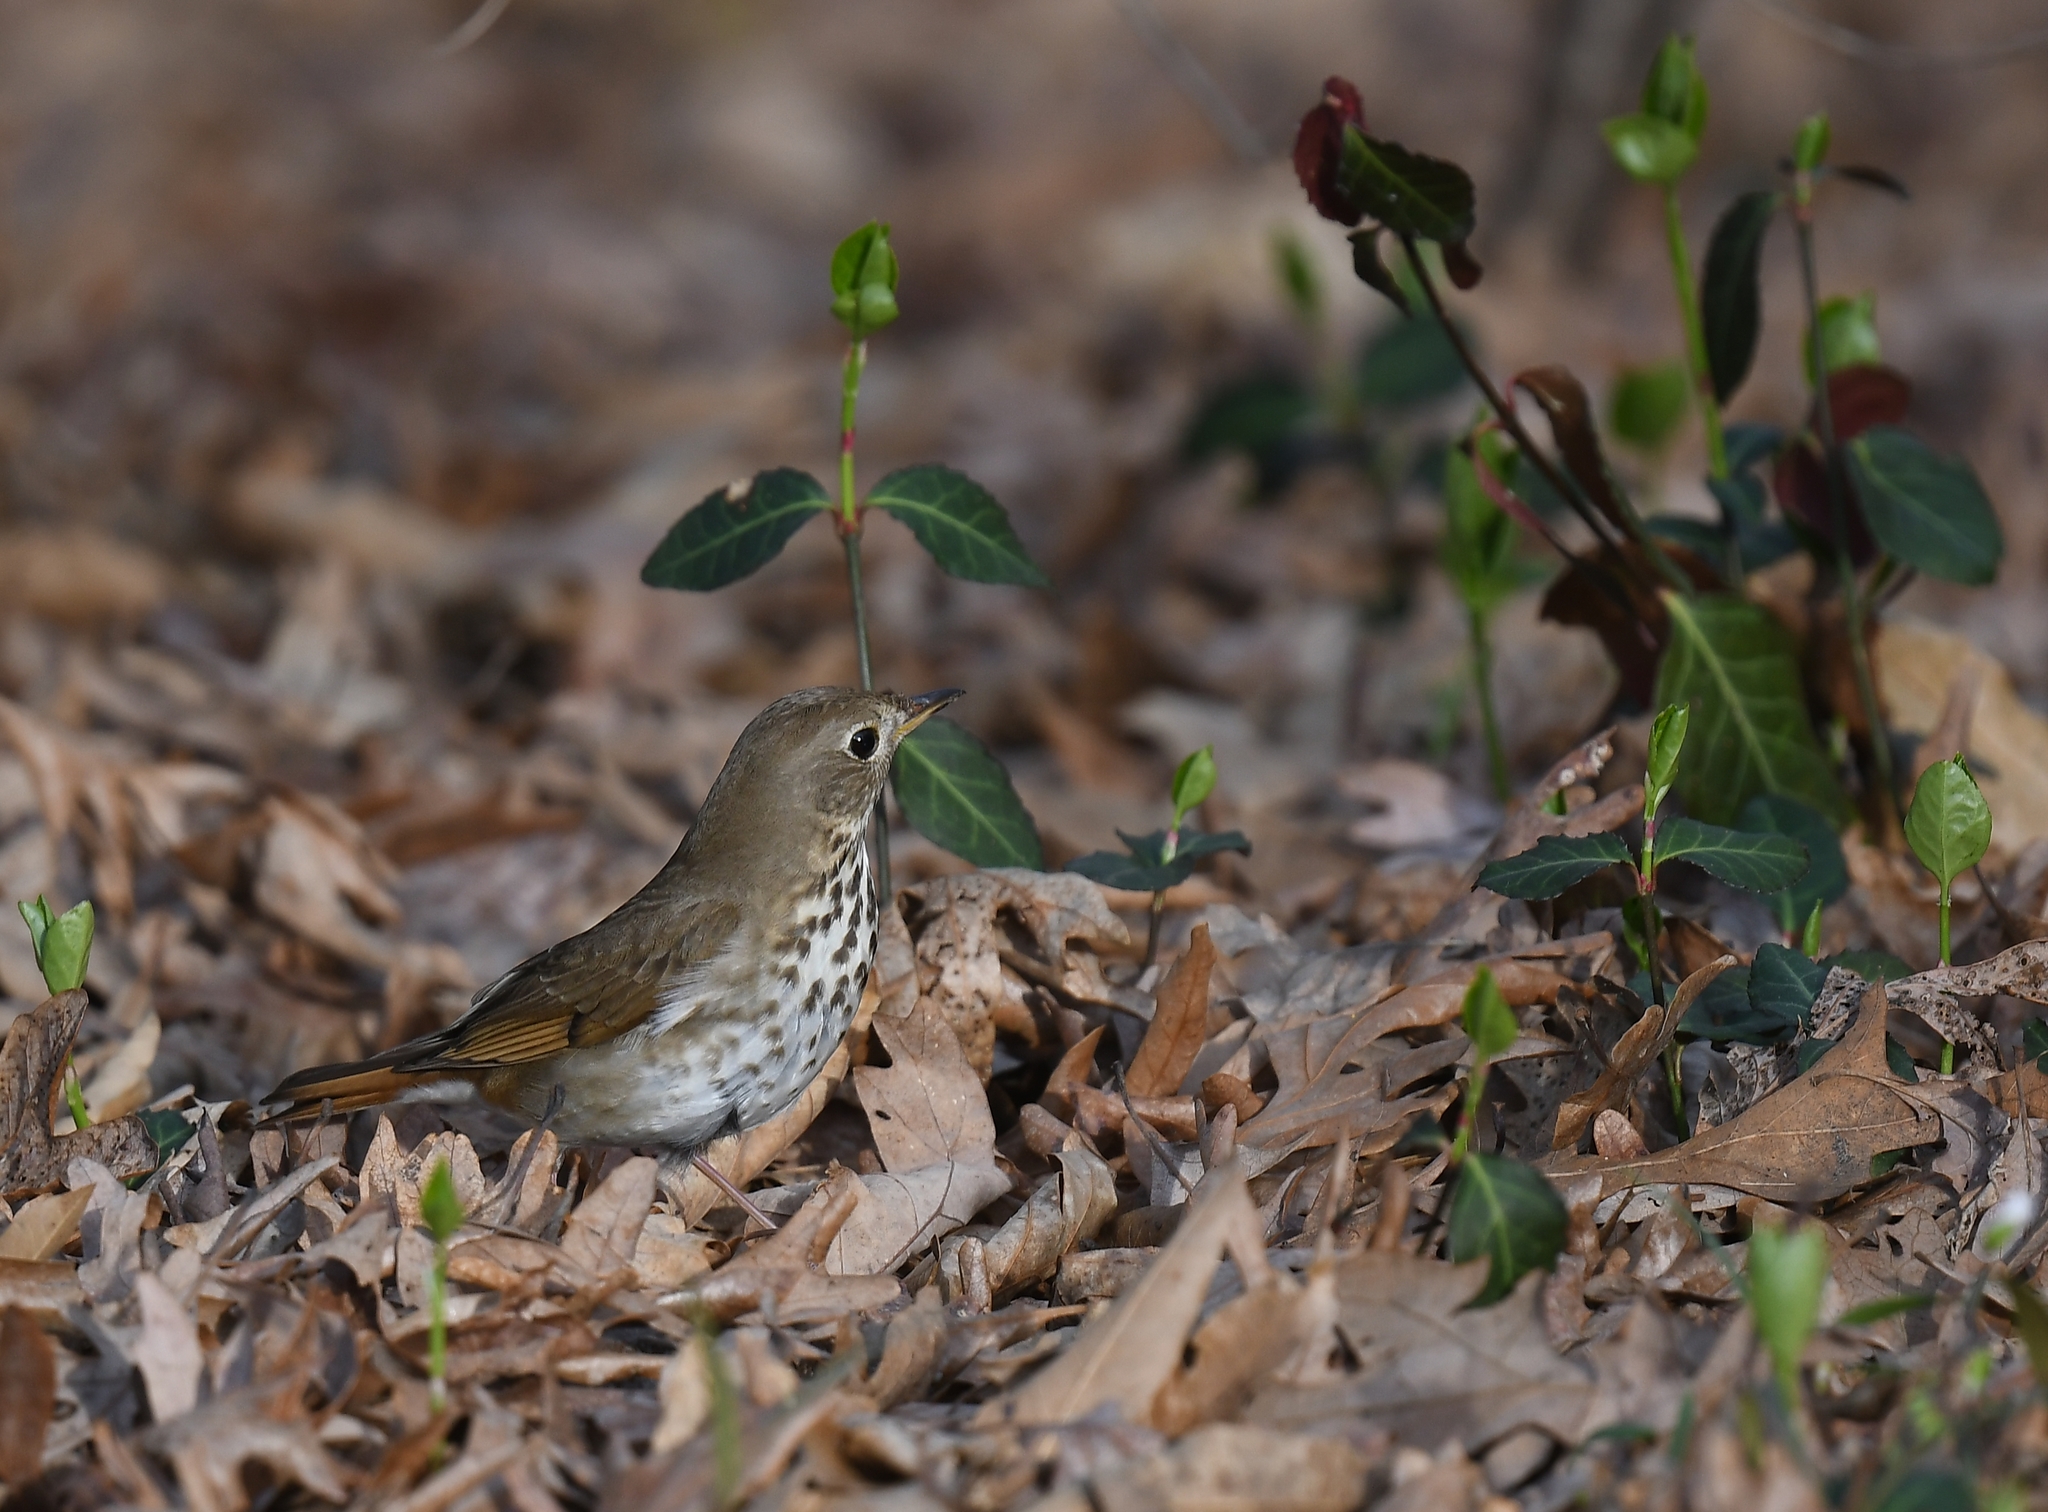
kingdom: Animalia
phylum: Chordata
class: Aves
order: Passeriformes
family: Turdidae
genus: Catharus
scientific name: Catharus guttatus
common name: Hermit thrush
